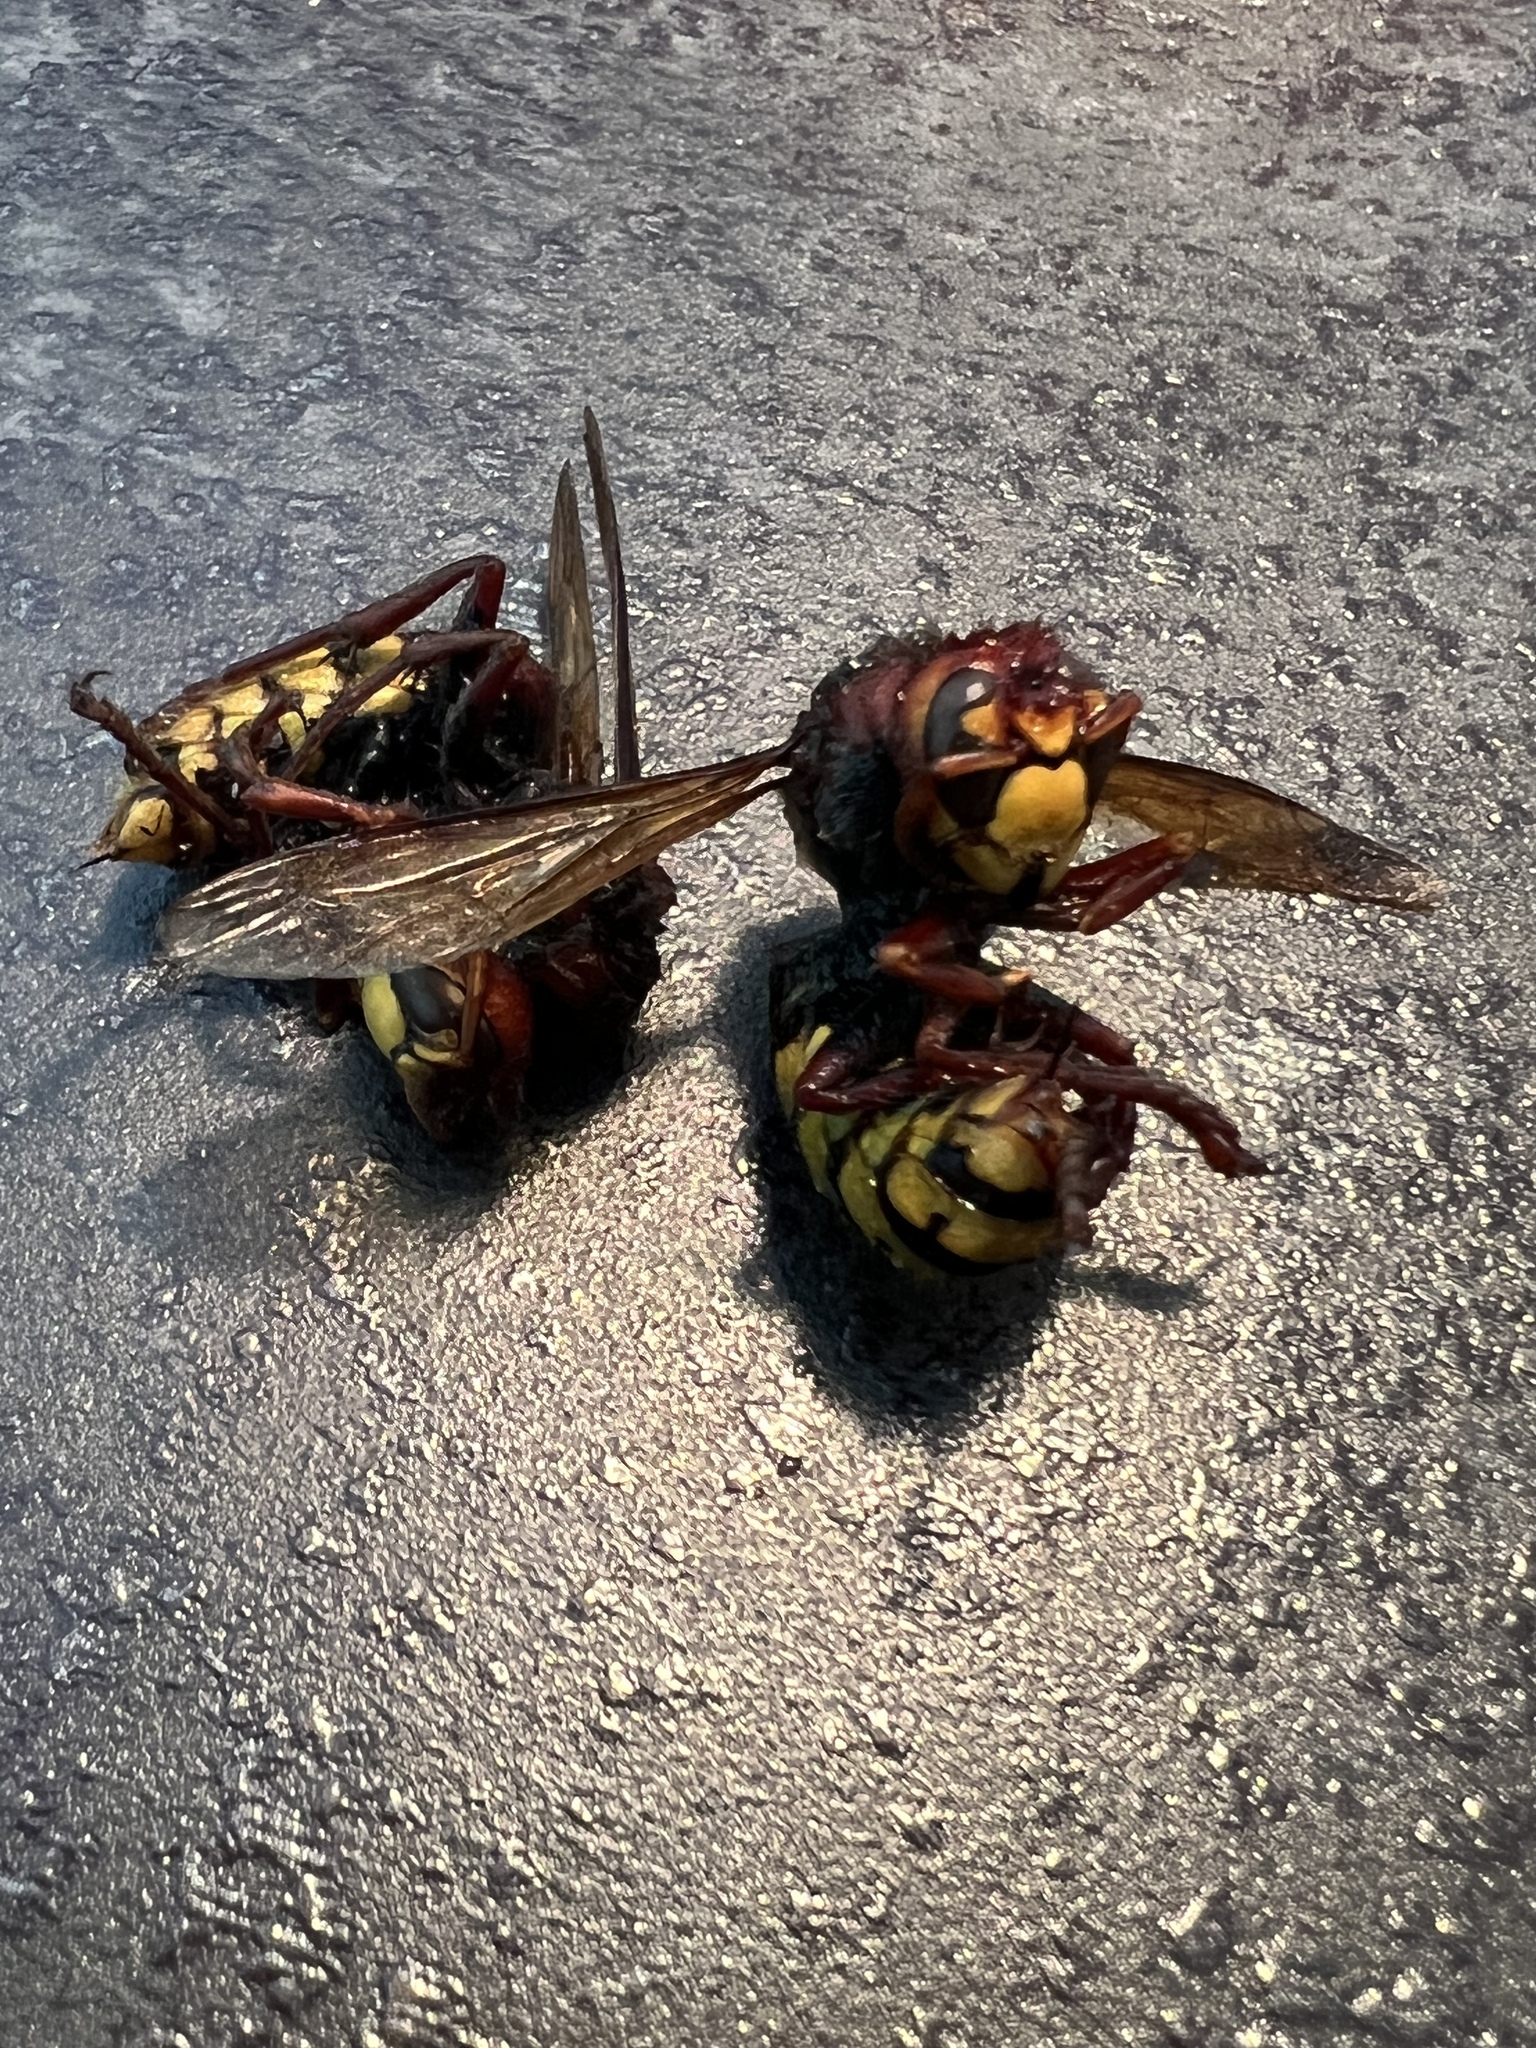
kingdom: Animalia
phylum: Arthropoda
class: Insecta
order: Hymenoptera
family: Vespidae
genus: Vespa
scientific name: Vespa crabro
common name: Hornet
